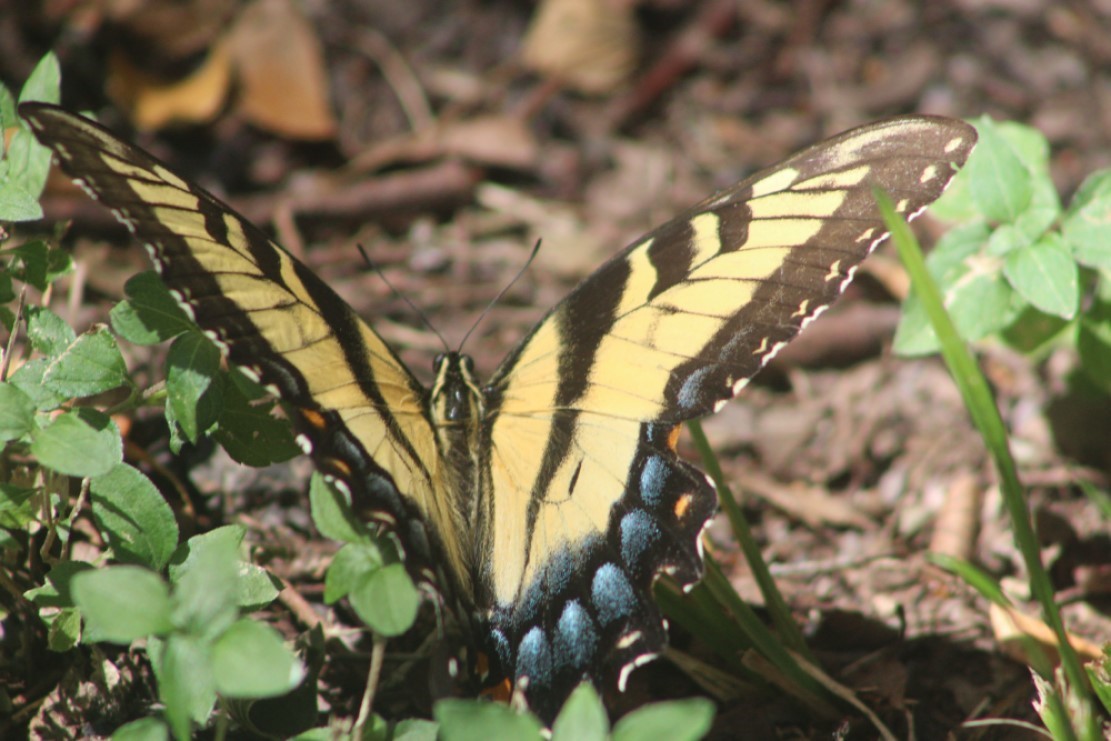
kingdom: Animalia
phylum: Arthropoda
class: Insecta
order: Lepidoptera
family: Papilionidae
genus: Papilio
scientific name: Papilio glaucus
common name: Tiger swallowtail
